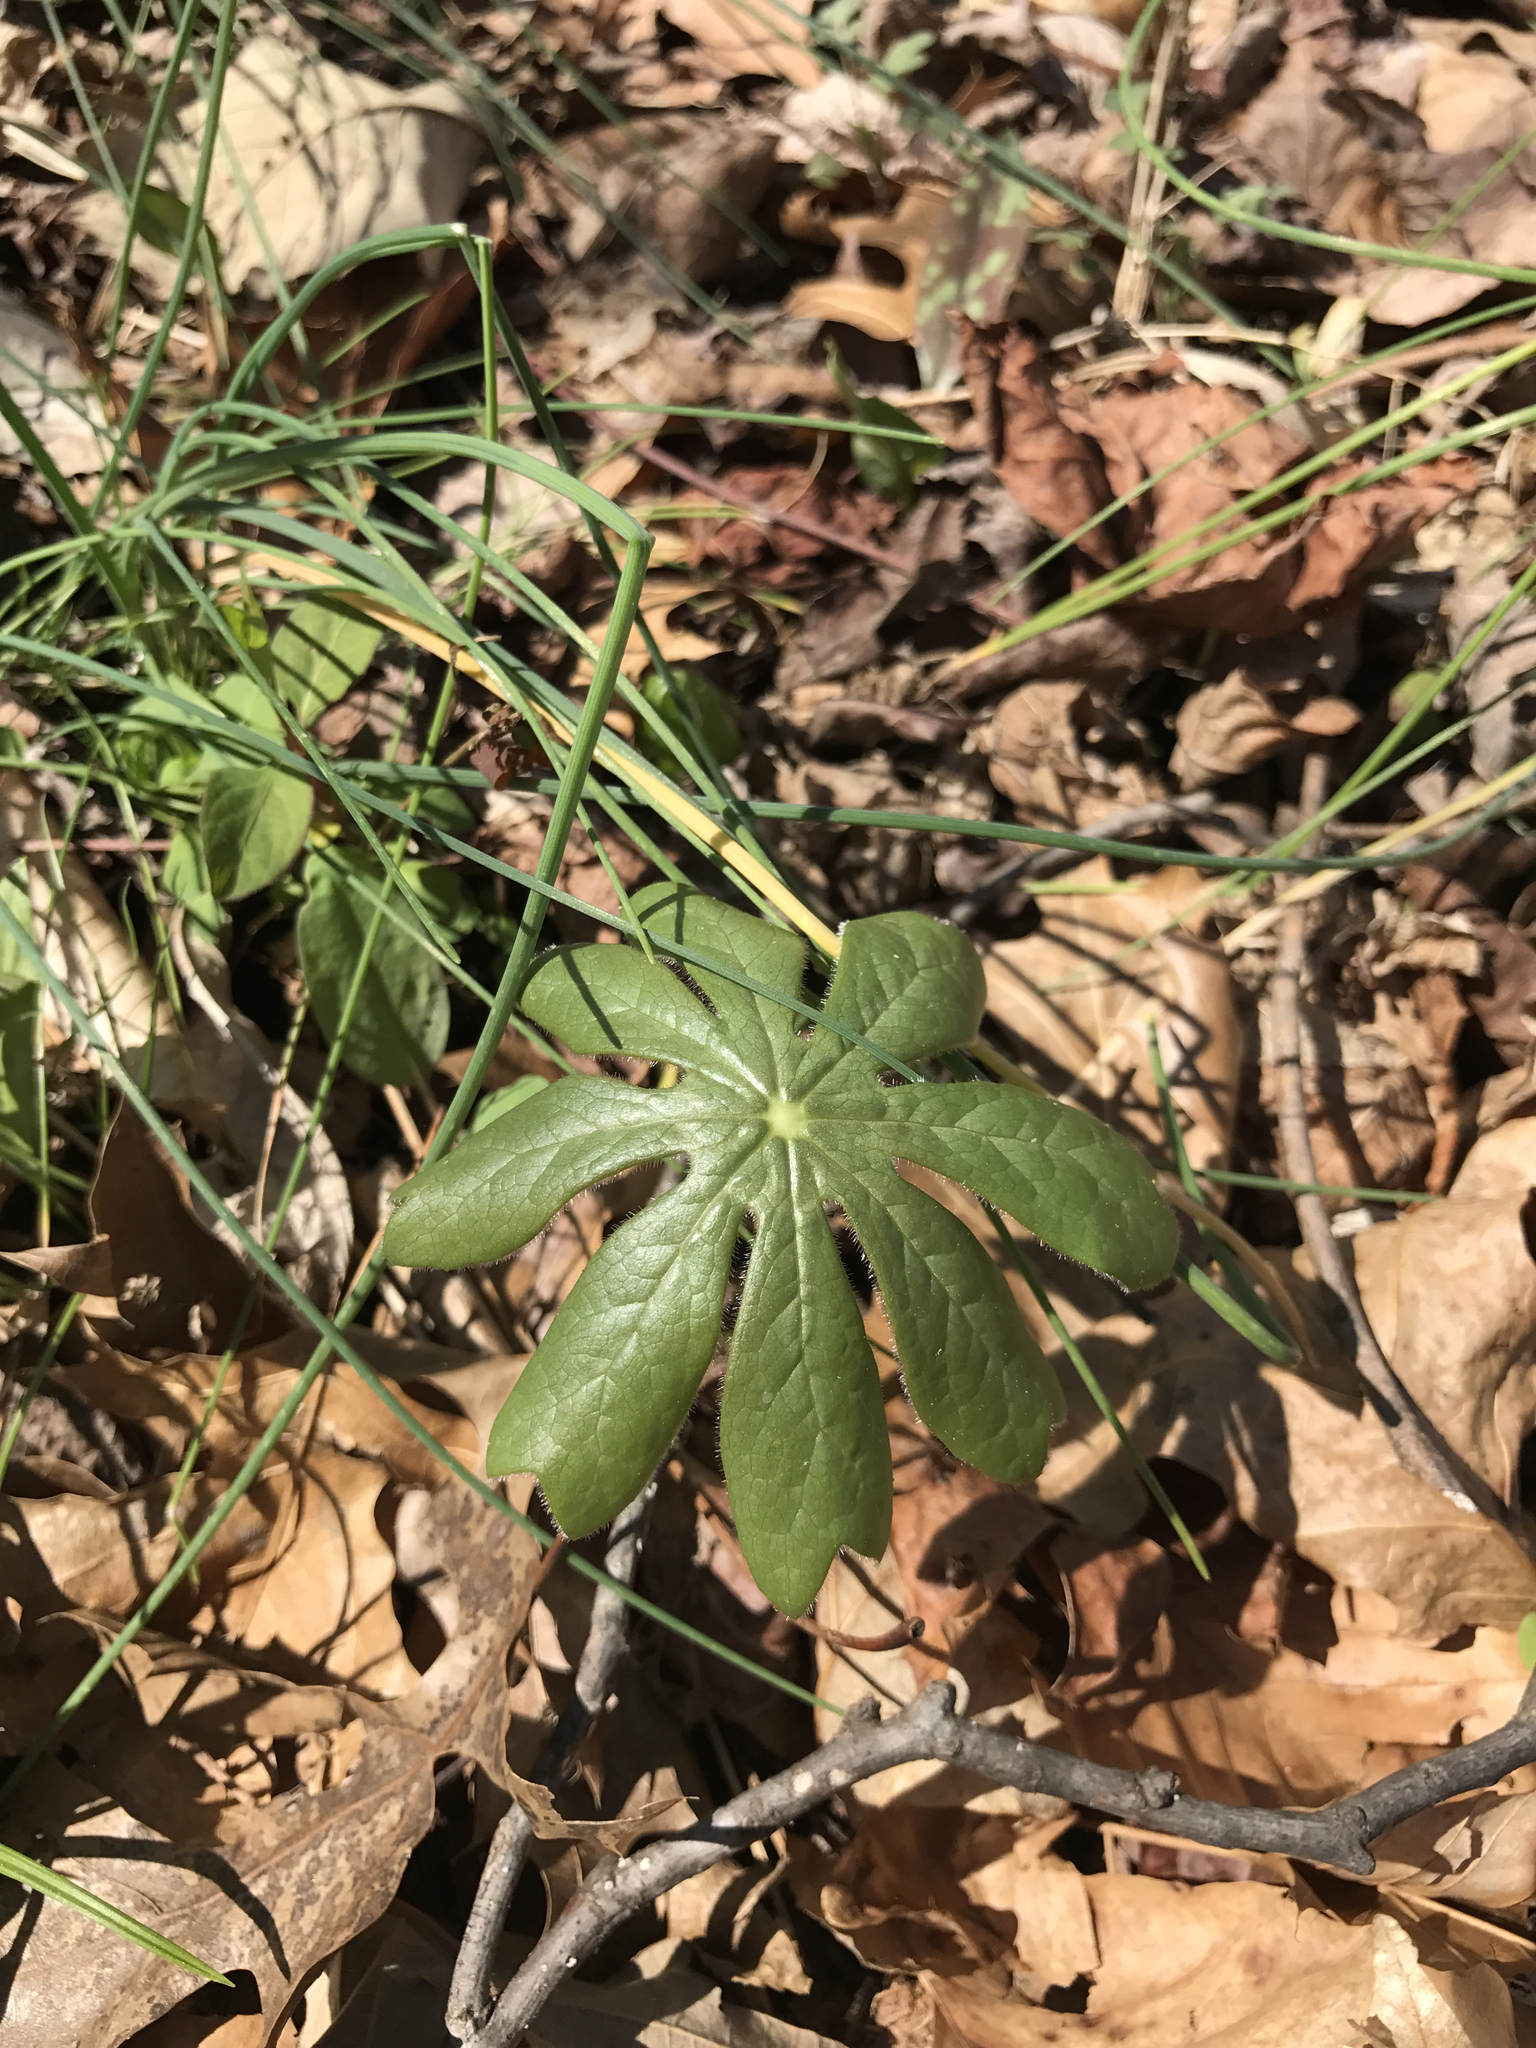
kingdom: Plantae
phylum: Tracheophyta
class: Magnoliopsida
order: Ranunculales
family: Berberidaceae
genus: Podophyllum
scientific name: Podophyllum peltatum
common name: Wild mandrake
